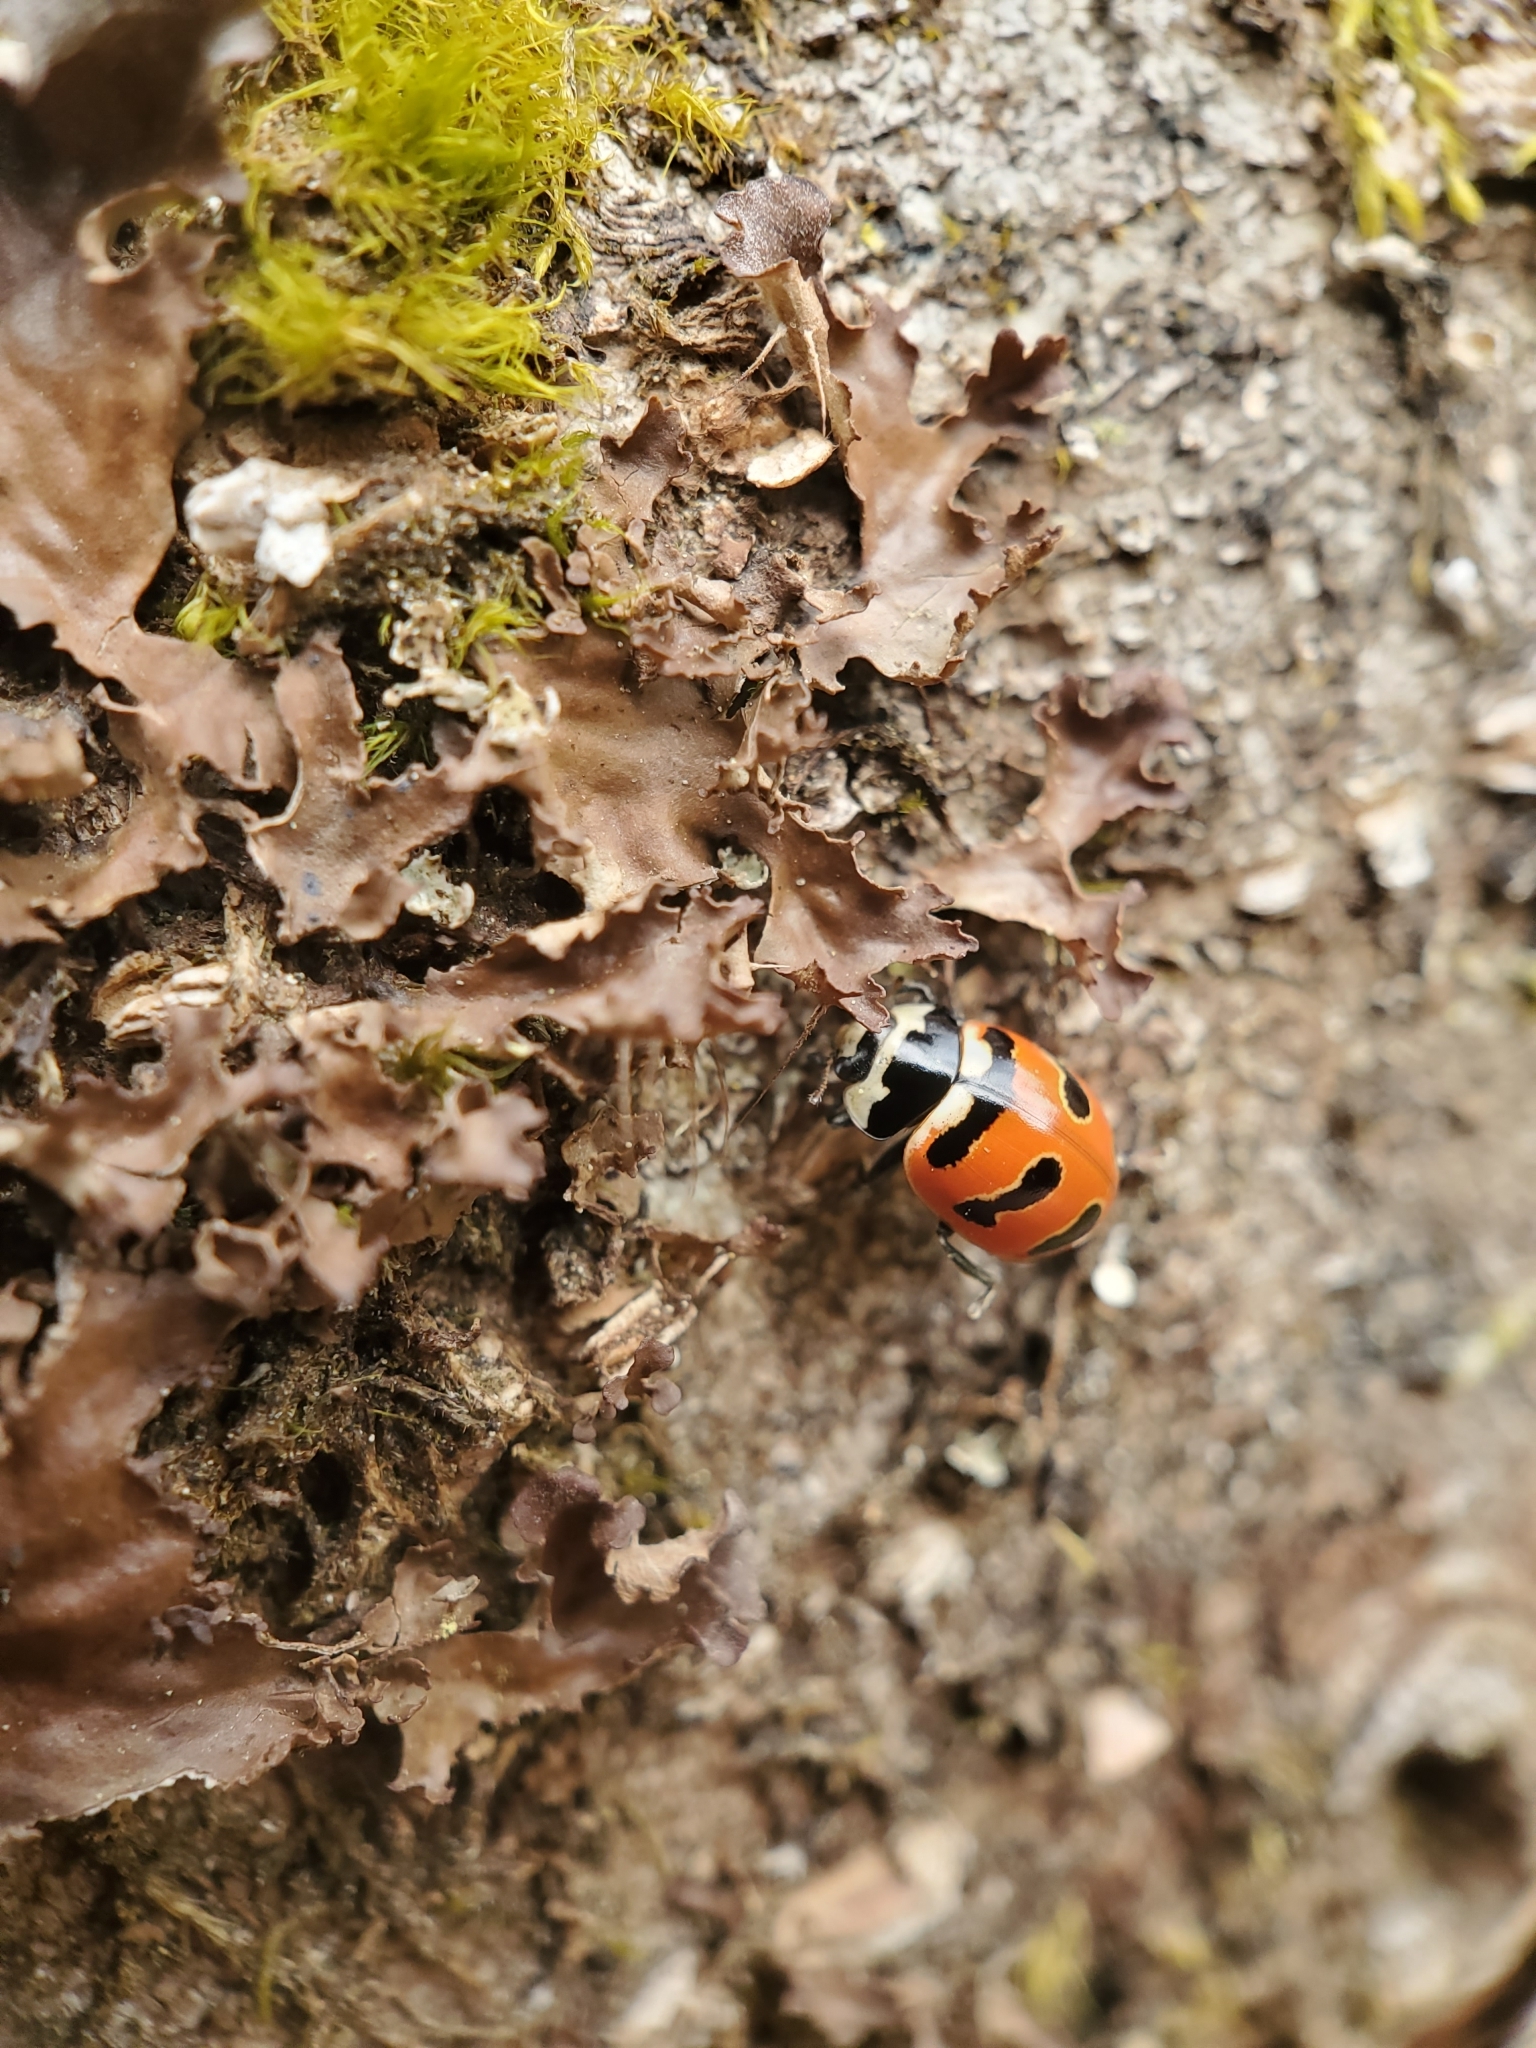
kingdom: Animalia
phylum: Arthropoda
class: Insecta
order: Coleoptera
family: Coccinellidae
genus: Coccinella
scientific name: Coccinella trifasciata
